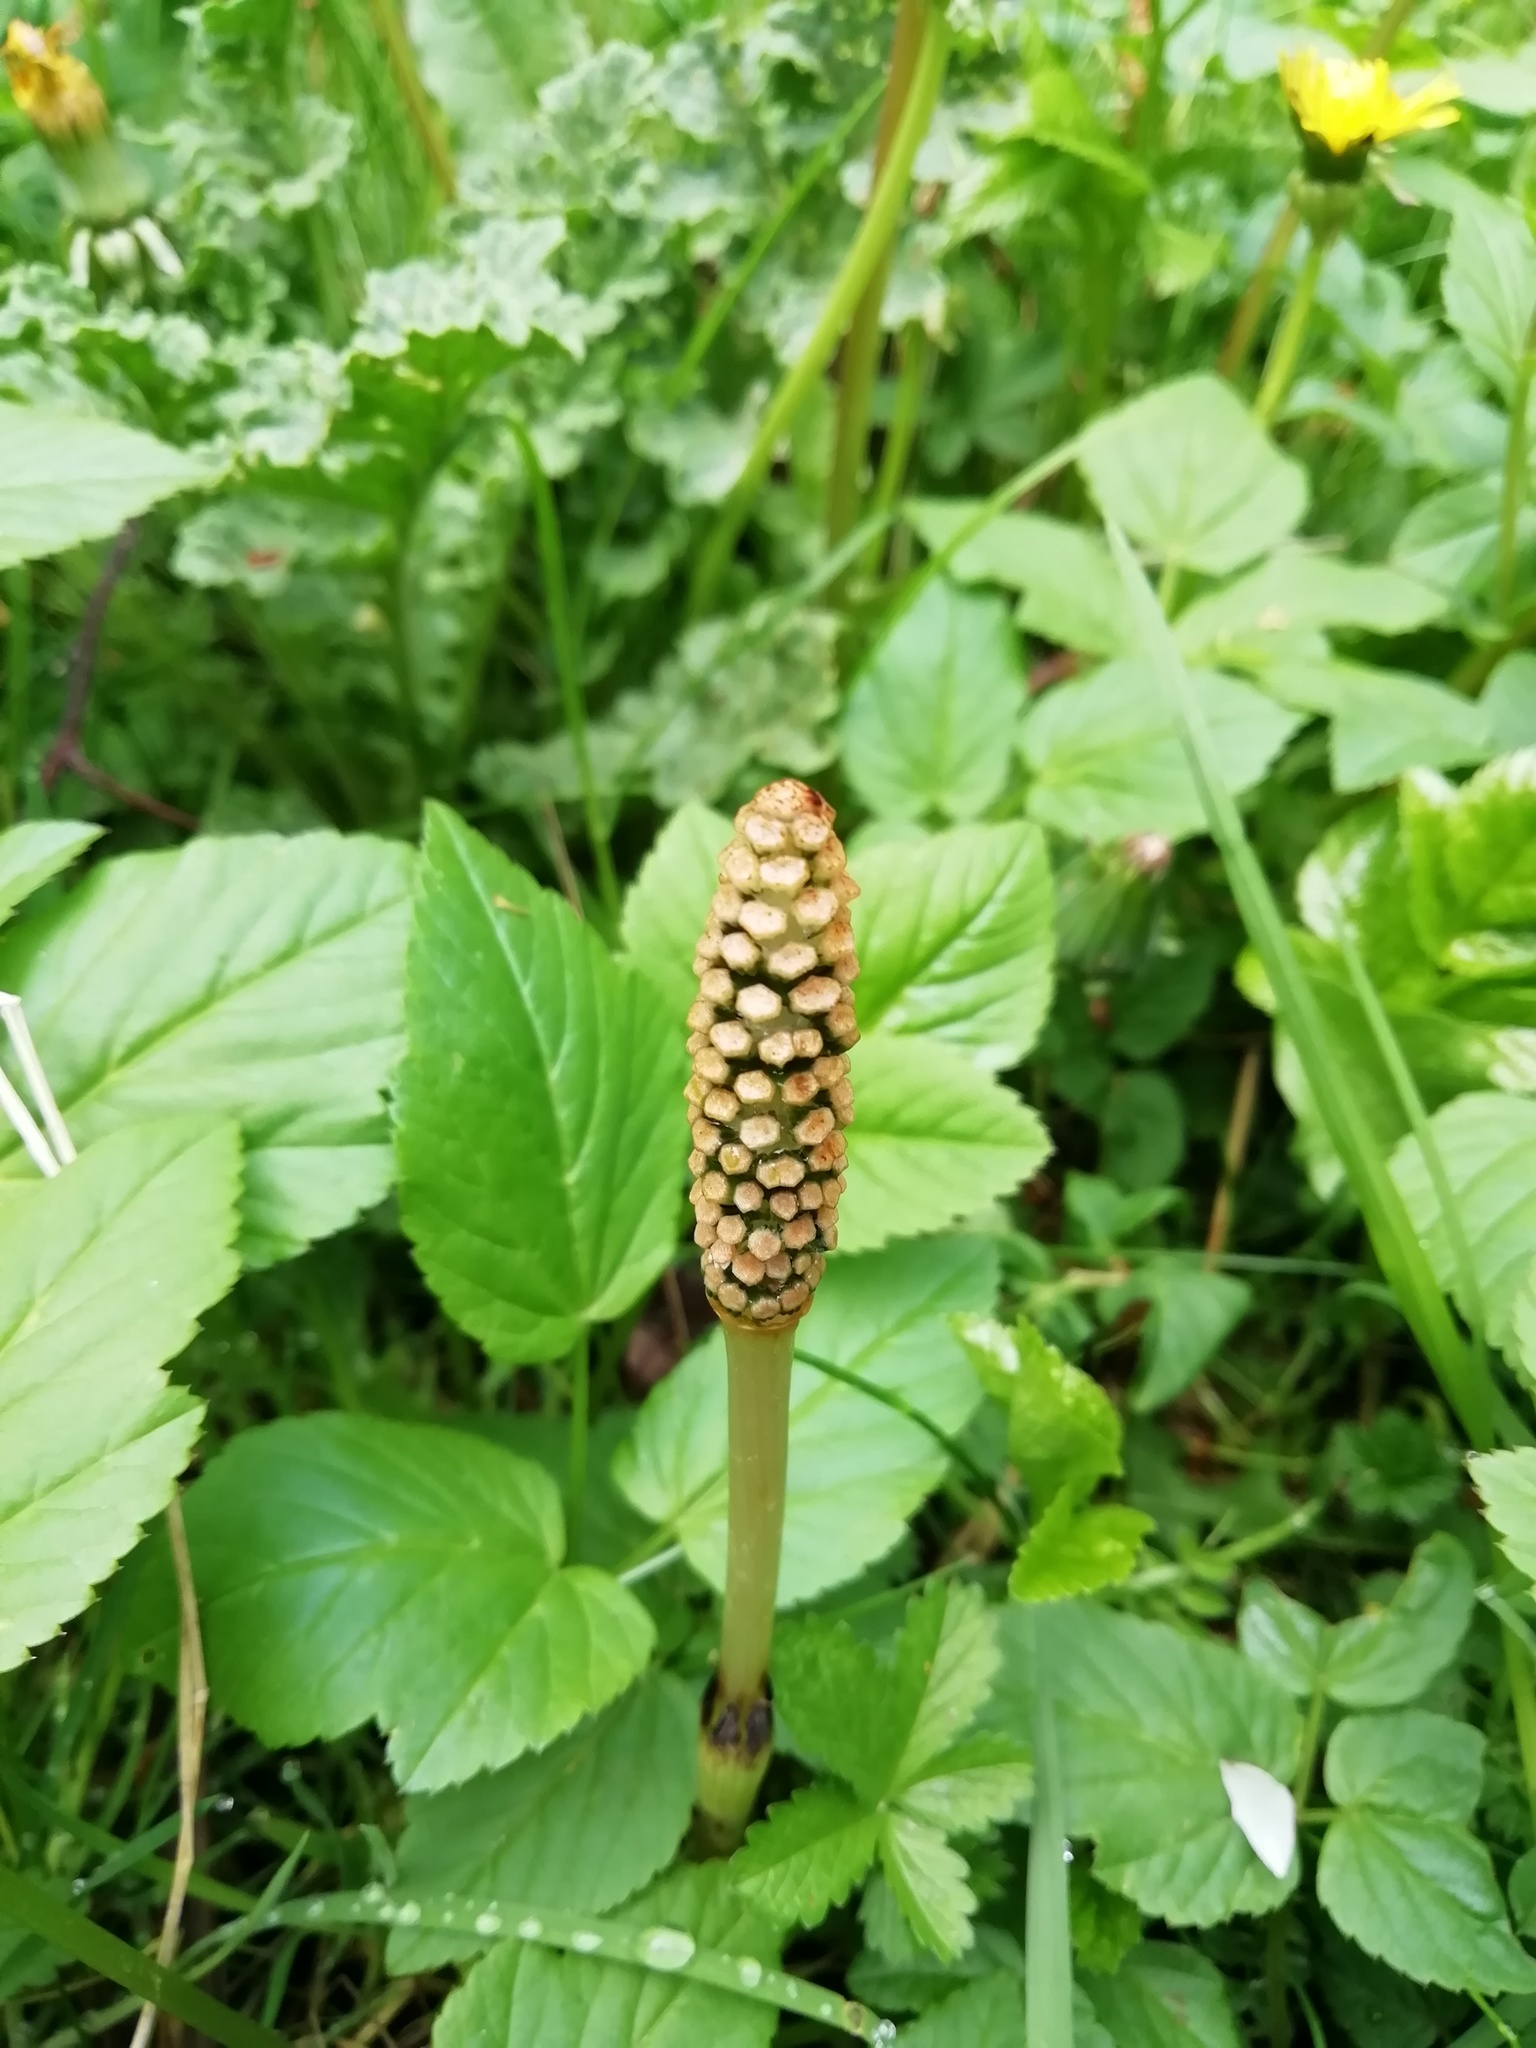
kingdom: Plantae
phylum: Tracheophyta
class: Polypodiopsida
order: Equisetales
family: Equisetaceae
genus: Equisetum
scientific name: Equisetum arvense
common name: Field horsetail
